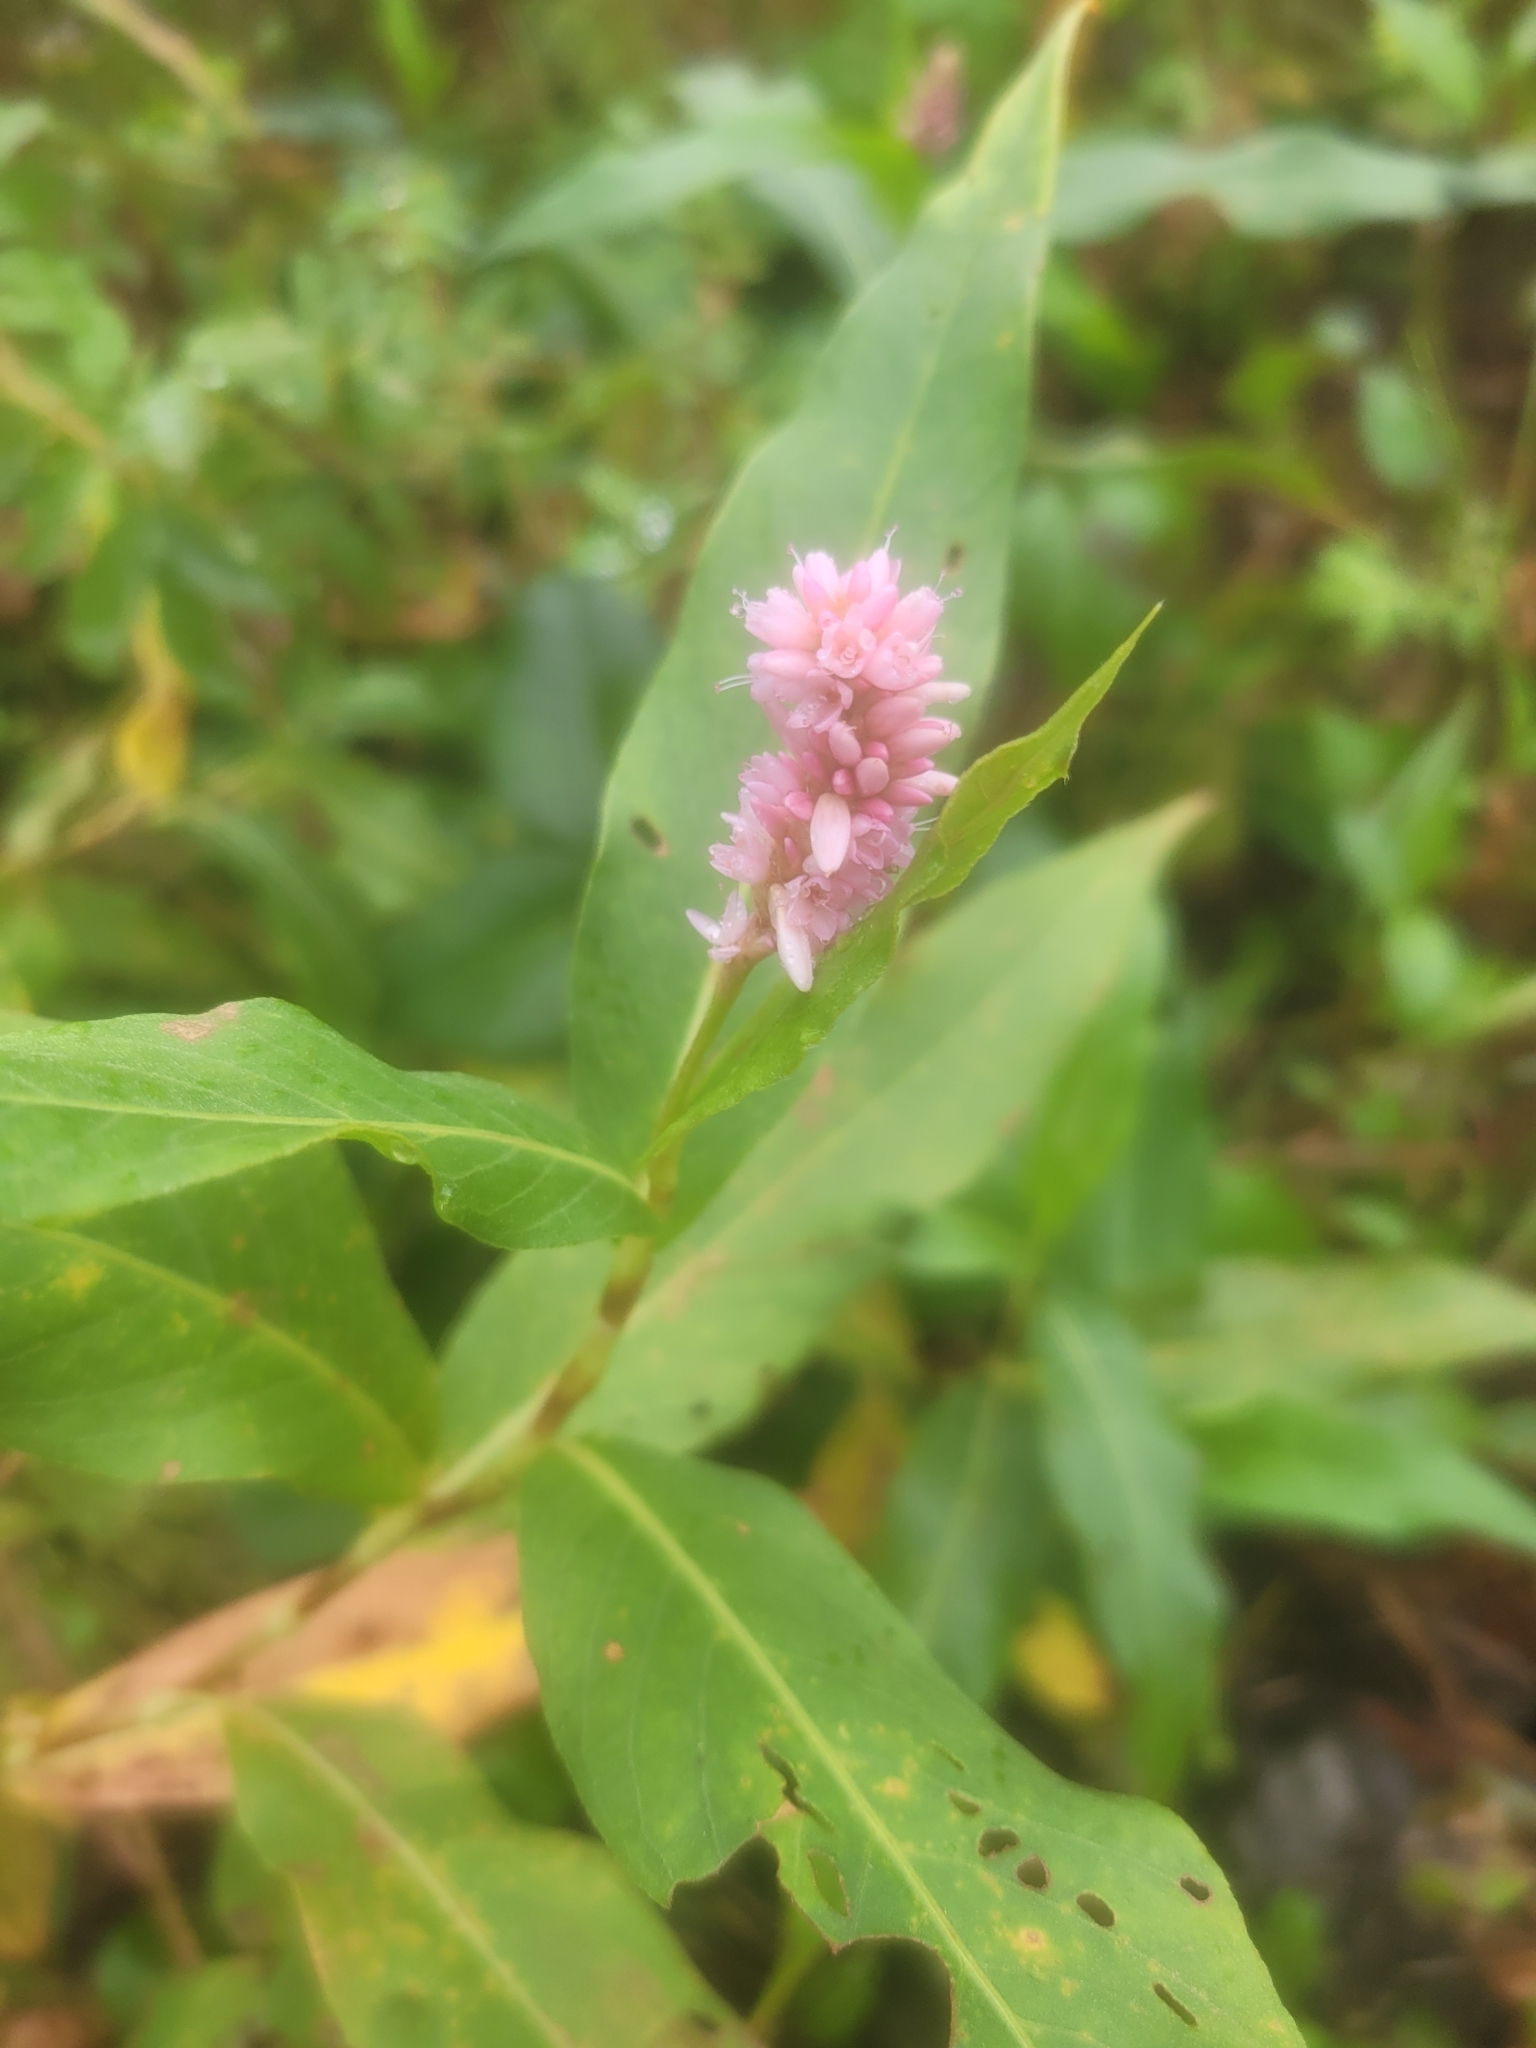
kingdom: Plantae
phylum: Tracheophyta
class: Magnoliopsida
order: Caryophyllales
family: Polygonaceae
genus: Persicaria
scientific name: Persicaria amphibia
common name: Amphibious bistort
